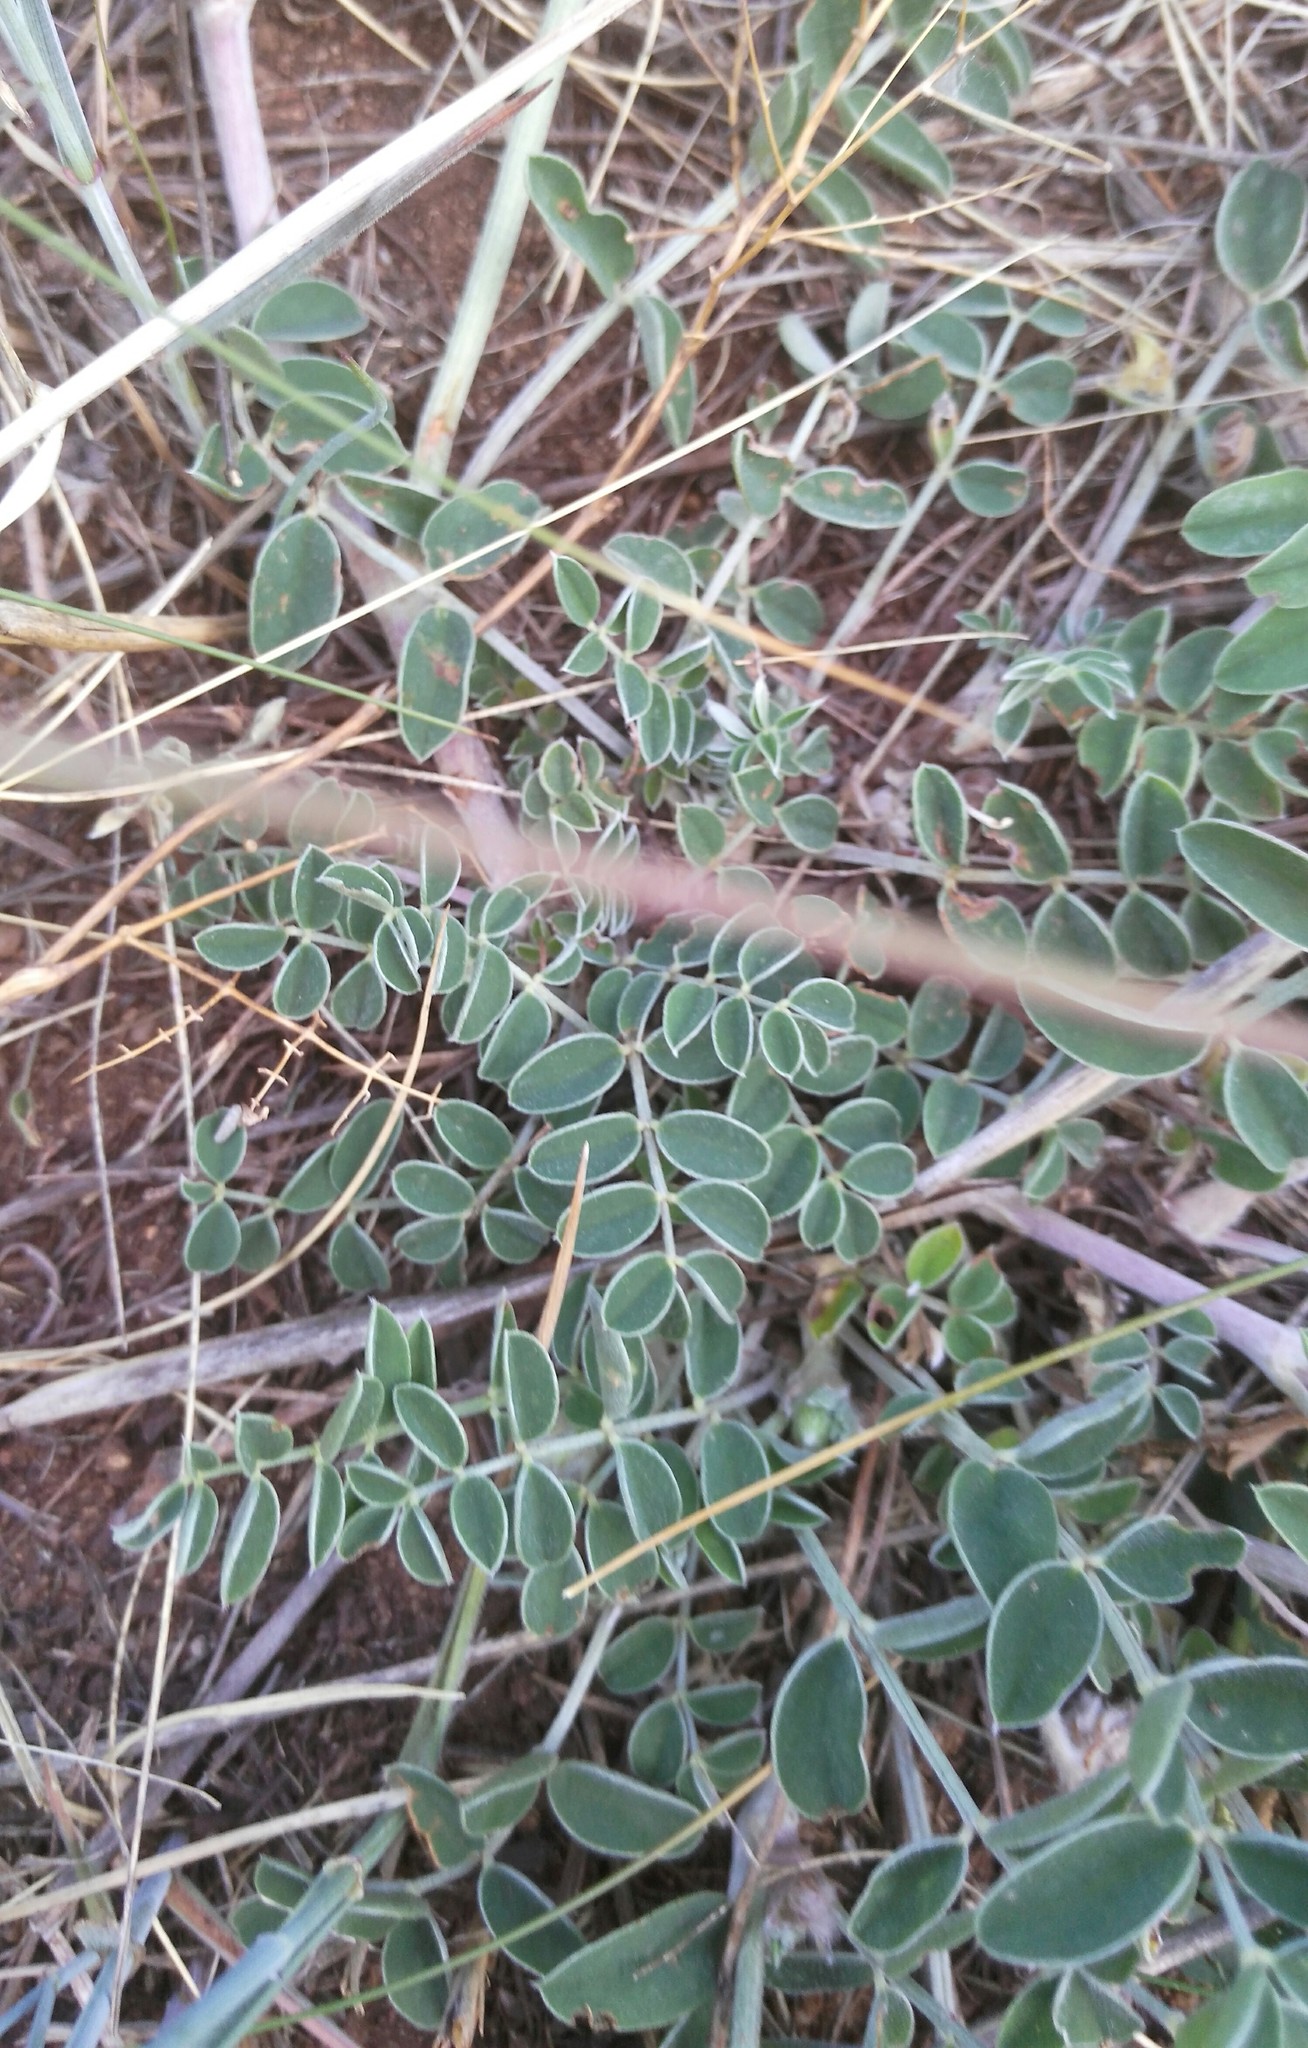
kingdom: Plantae
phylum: Tracheophyta
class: Magnoliopsida
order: Fabales
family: Fabaceae
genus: Hedysarum
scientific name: Hedysarum setigerum
